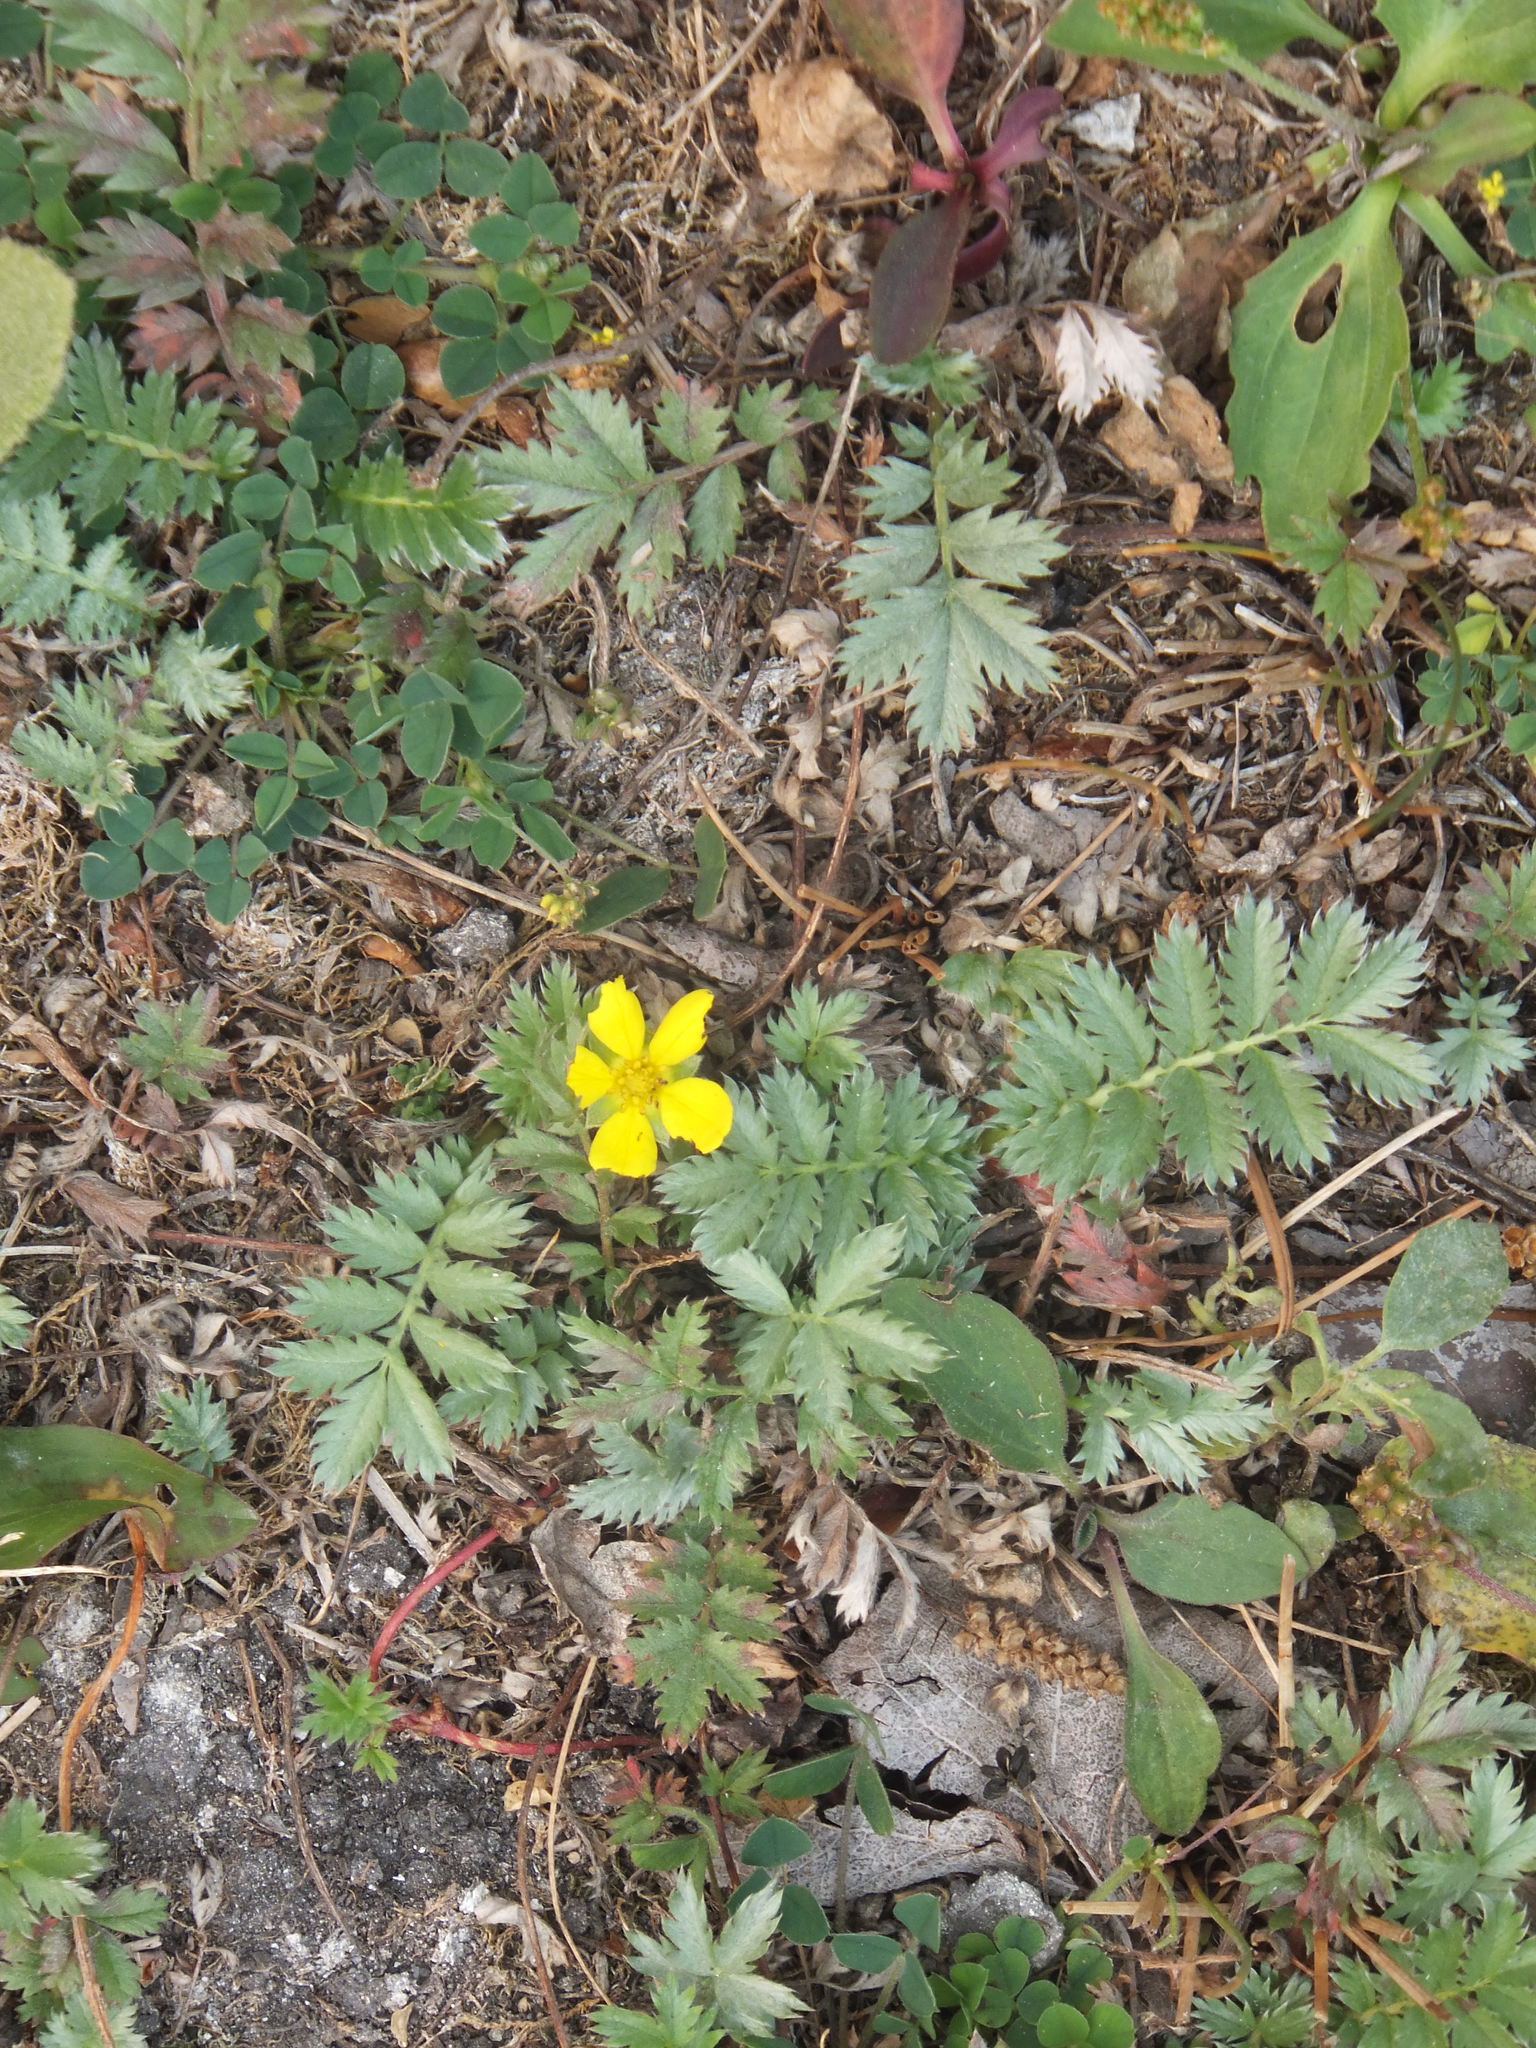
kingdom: Plantae
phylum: Tracheophyta
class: Magnoliopsida
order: Rosales
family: Rosaceae
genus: Argentina
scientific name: Argentina anserina
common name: Common silverweed
